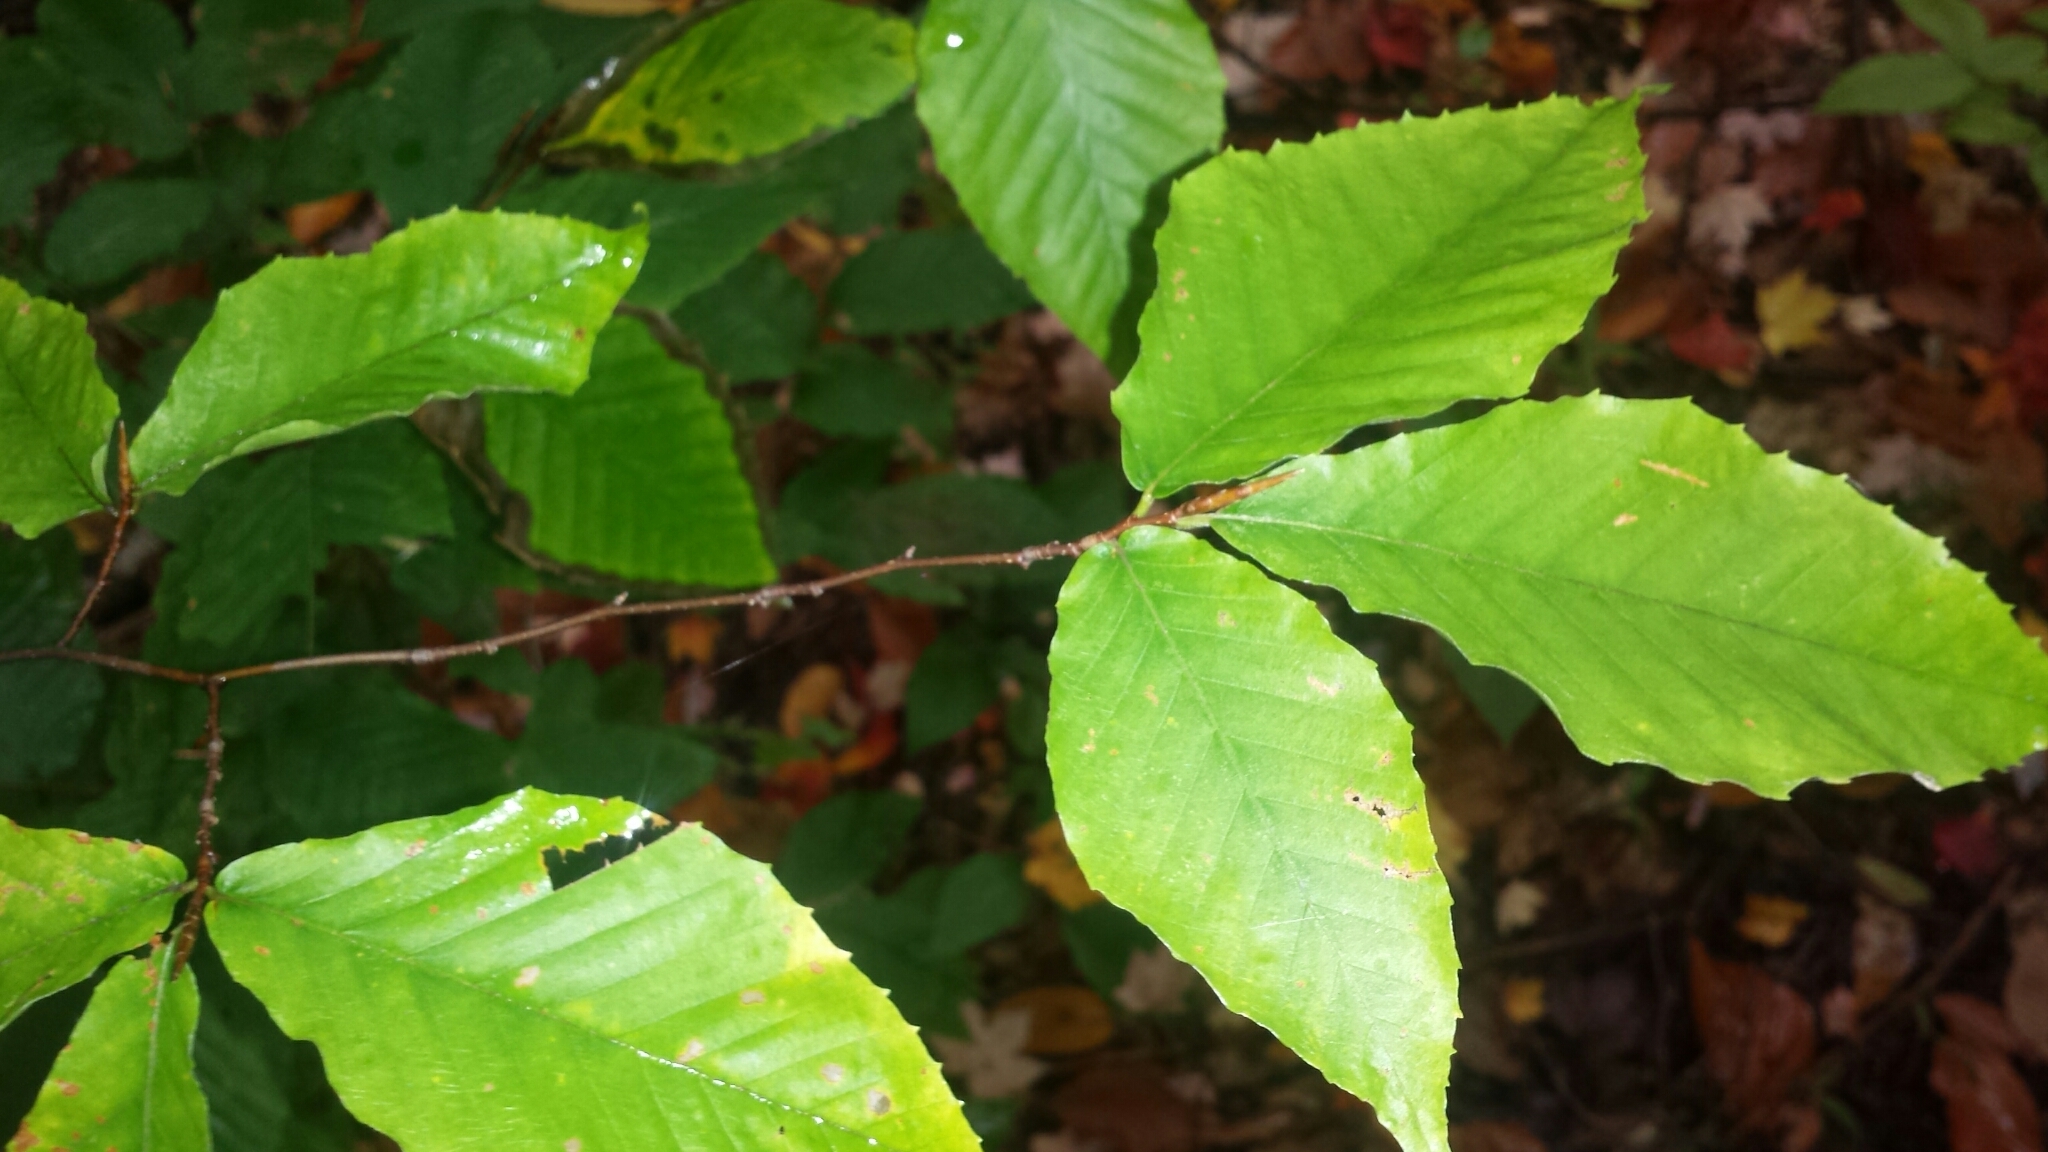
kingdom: Plantae
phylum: Tracheophyta
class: Magnoliopsida
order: Fagales
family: Fagaceae
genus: Fagus
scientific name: Fagus grandifolia
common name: American beech
